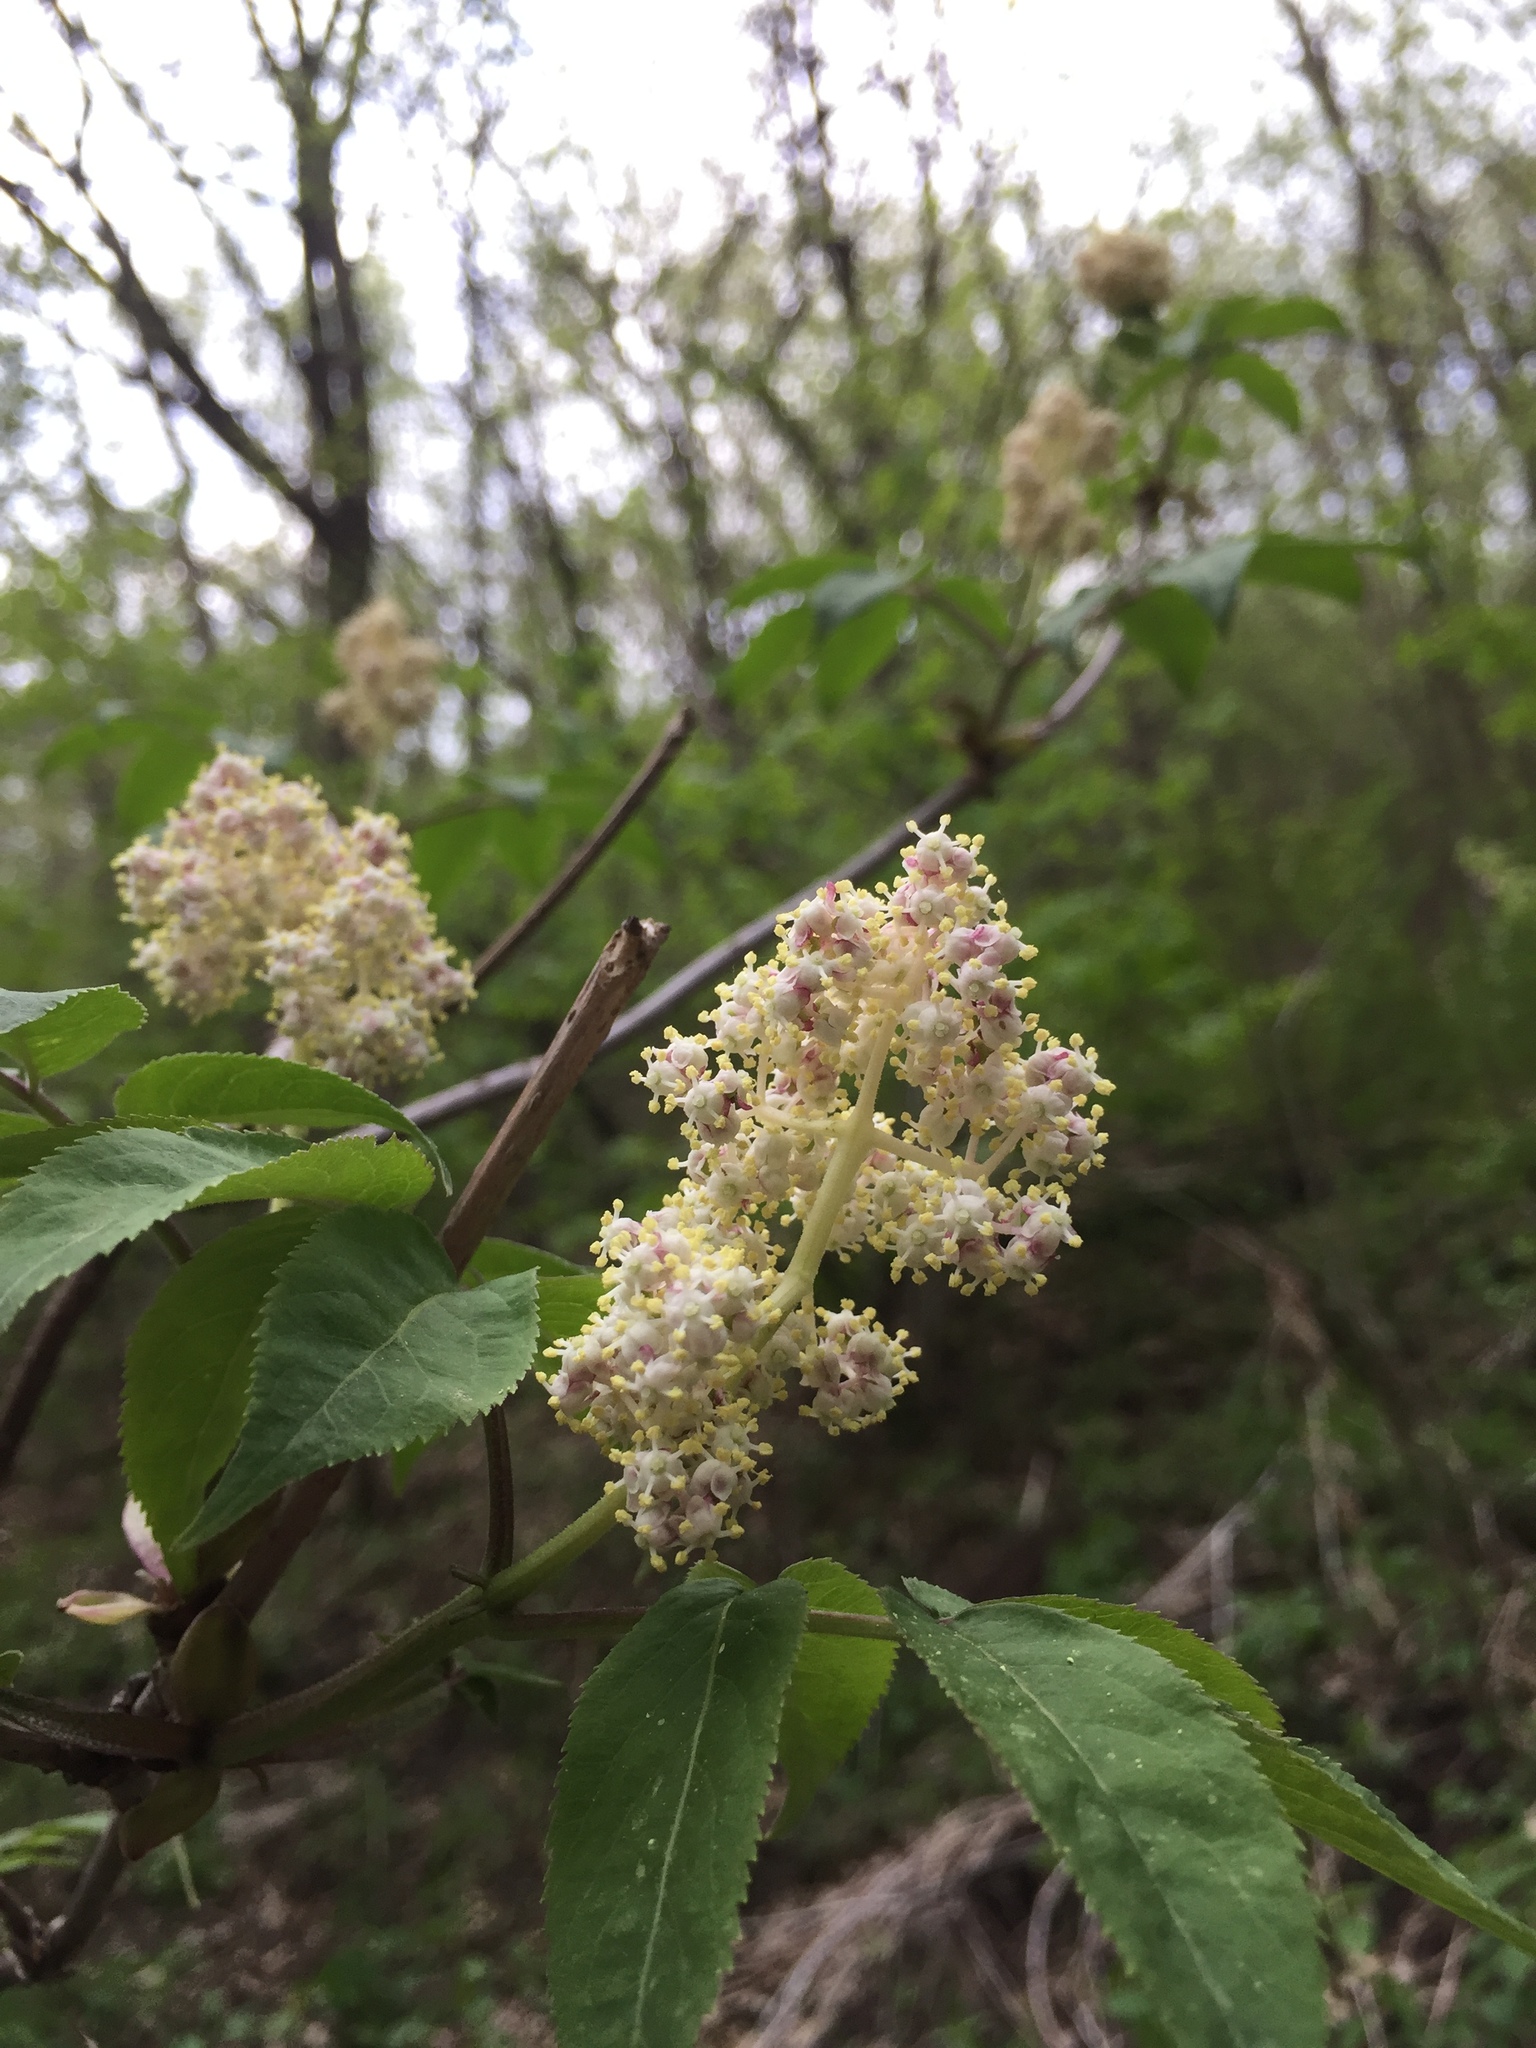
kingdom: Plantae
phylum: Tracheophyta
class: Magnoliopsida
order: Dipsacales
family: Viburnaceae
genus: Sambucus
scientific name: Sambucus racemosa
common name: Red-berried elder
